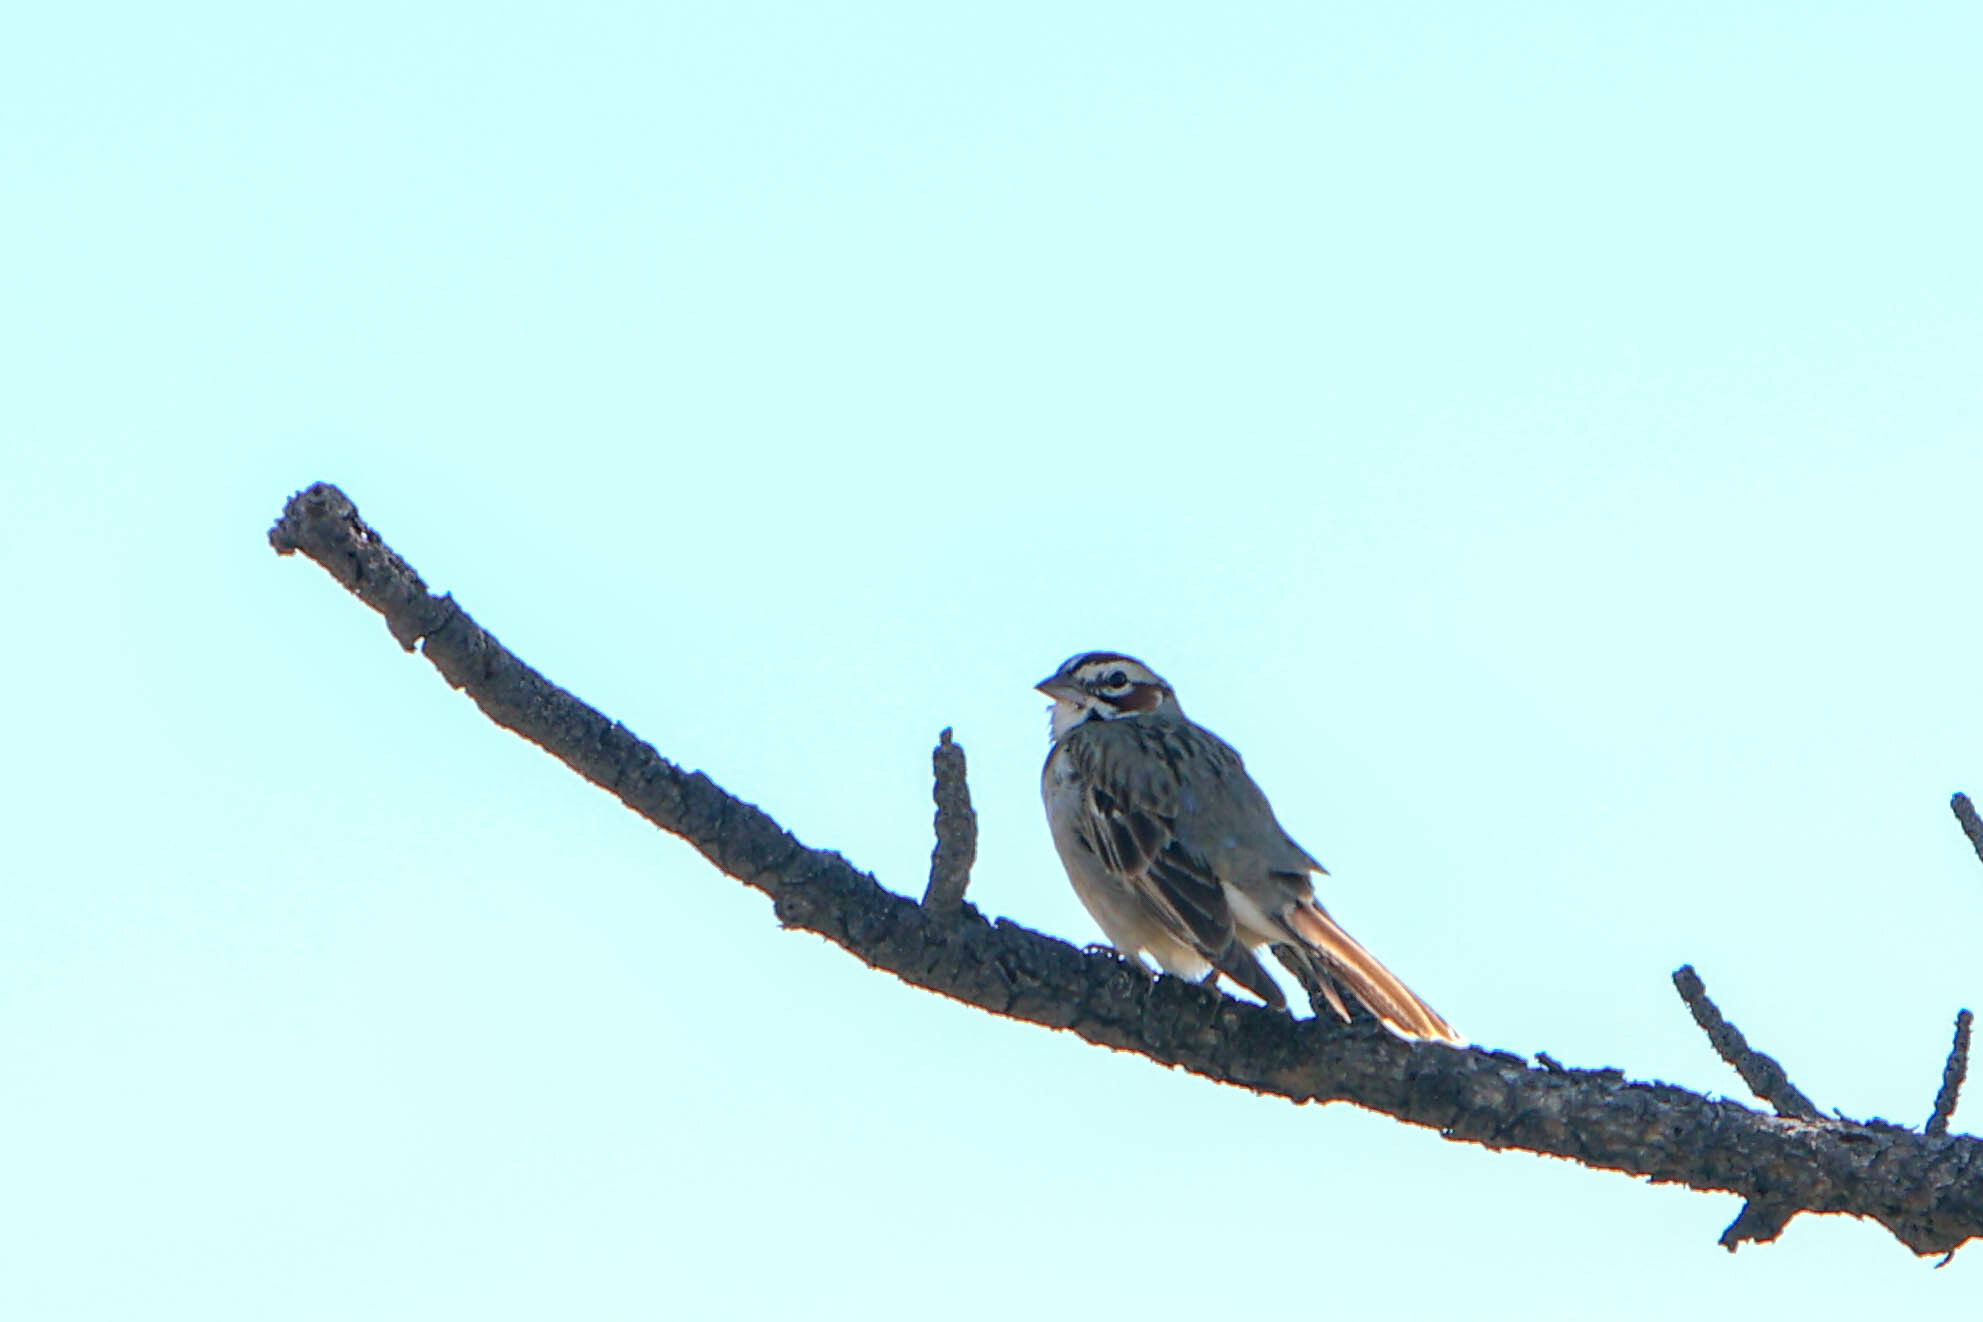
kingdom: Animalia
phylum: Chordata
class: Aves
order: Passeriformes
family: Passerellidae
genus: Chondestes
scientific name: Chondestes grammacus
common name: Lark sparrow
